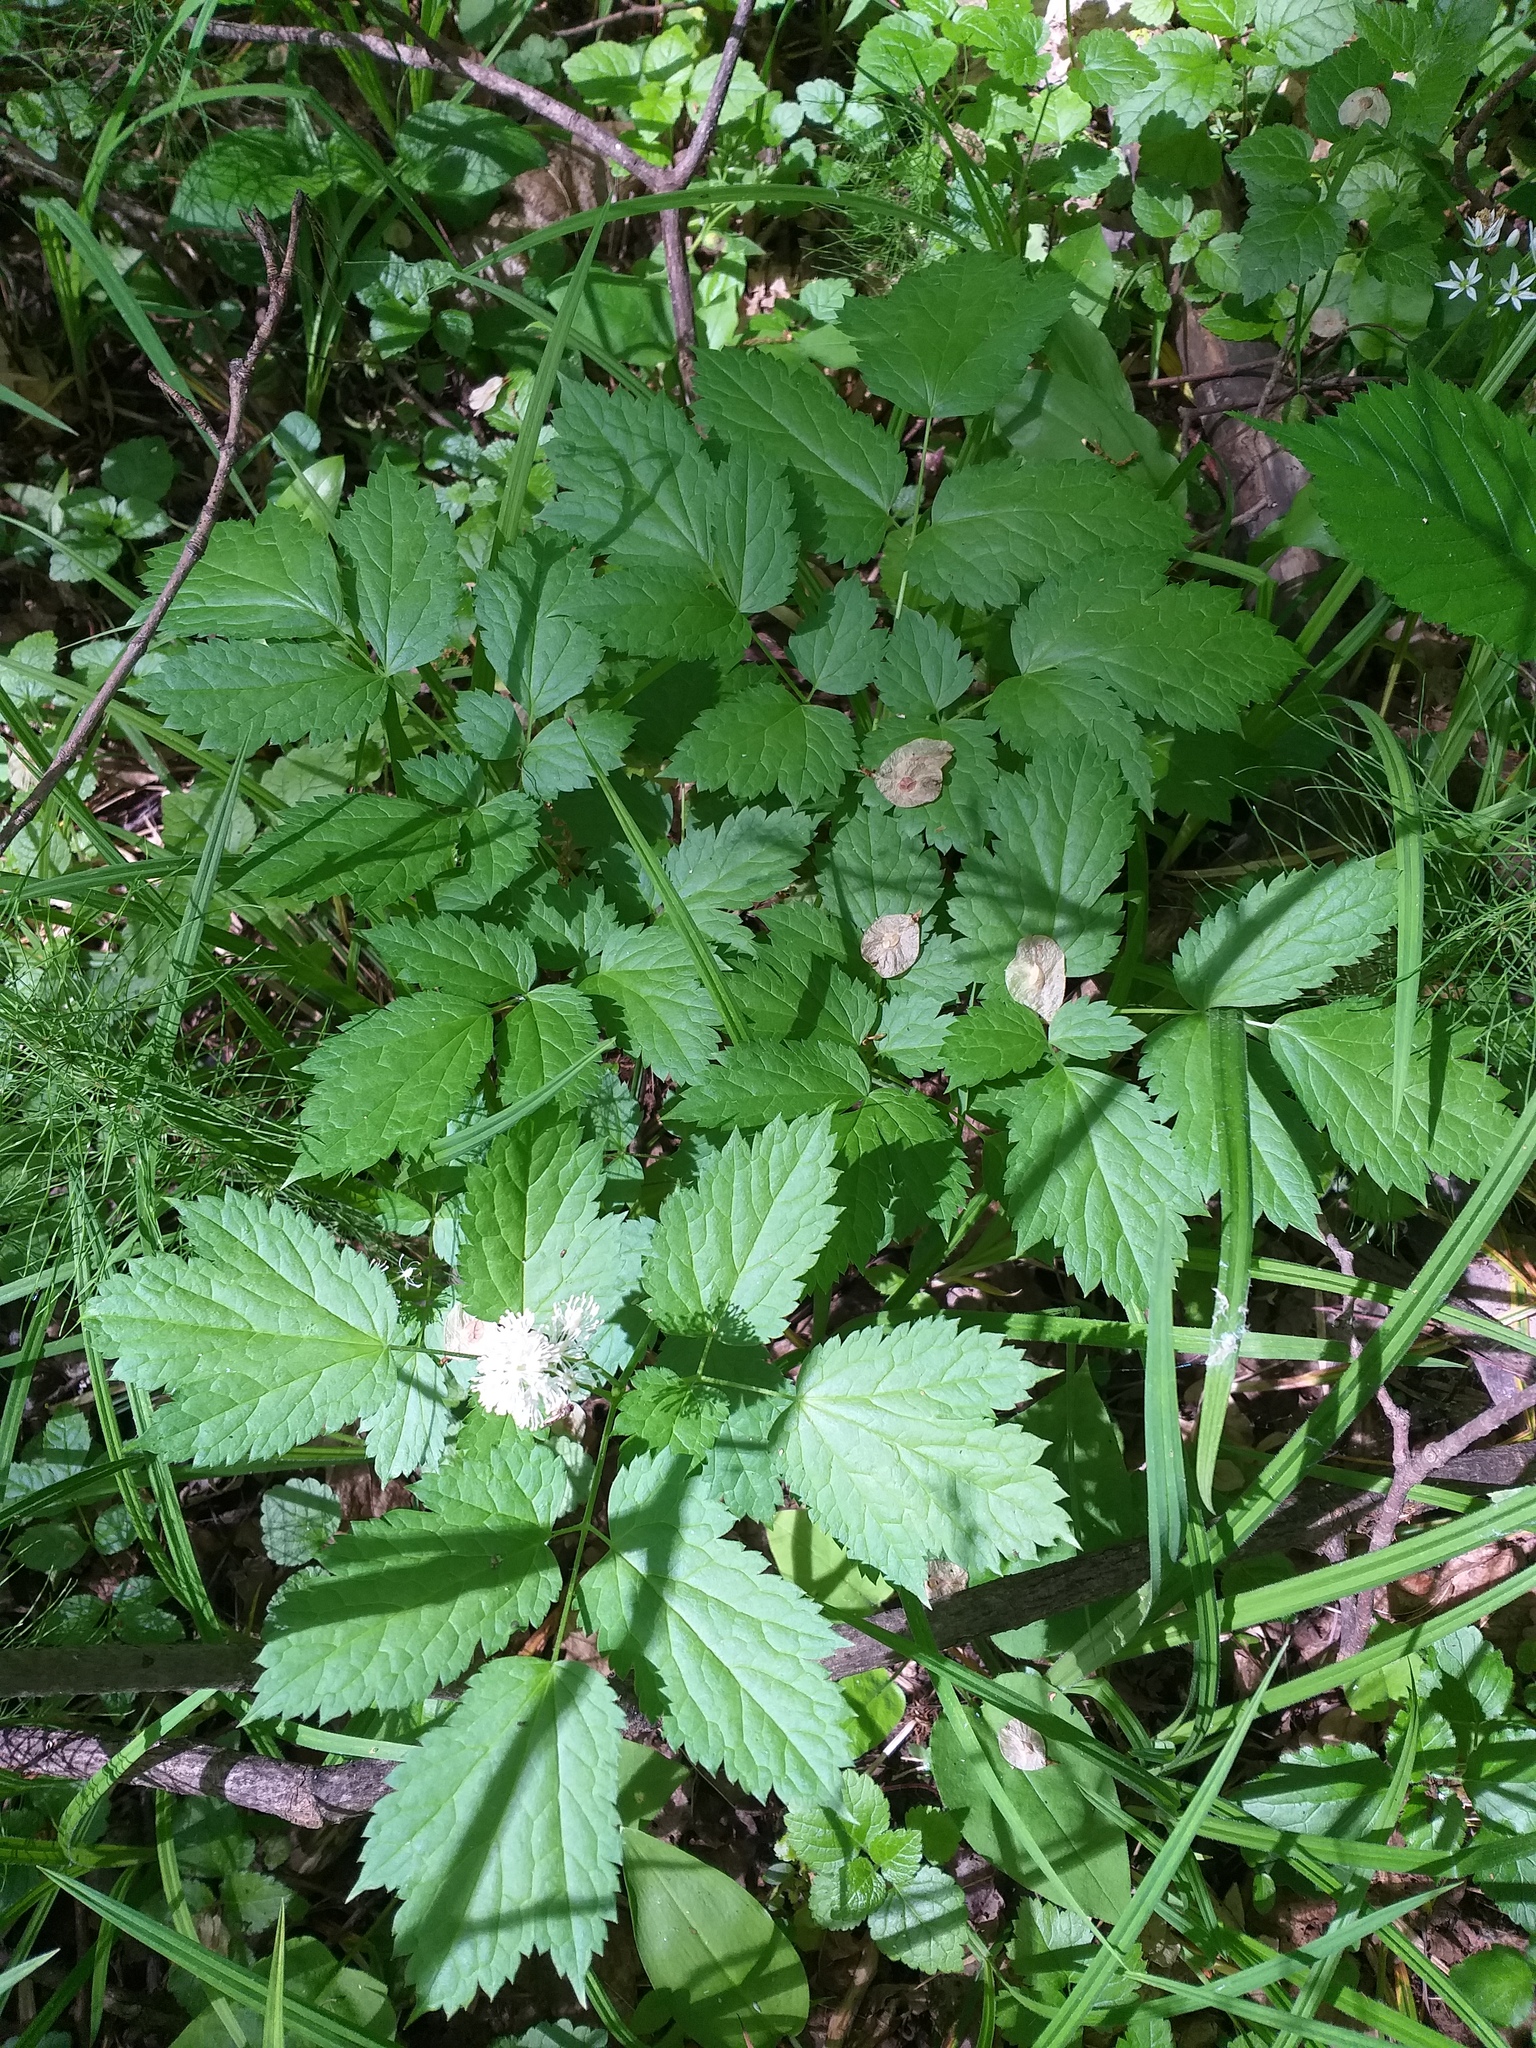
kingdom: Plantae
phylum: Tracheophyta
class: Magnoliopsida
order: Ranunculales
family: Ranunculaceae
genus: Actaea
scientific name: Actaea spicata
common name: Baneberry
